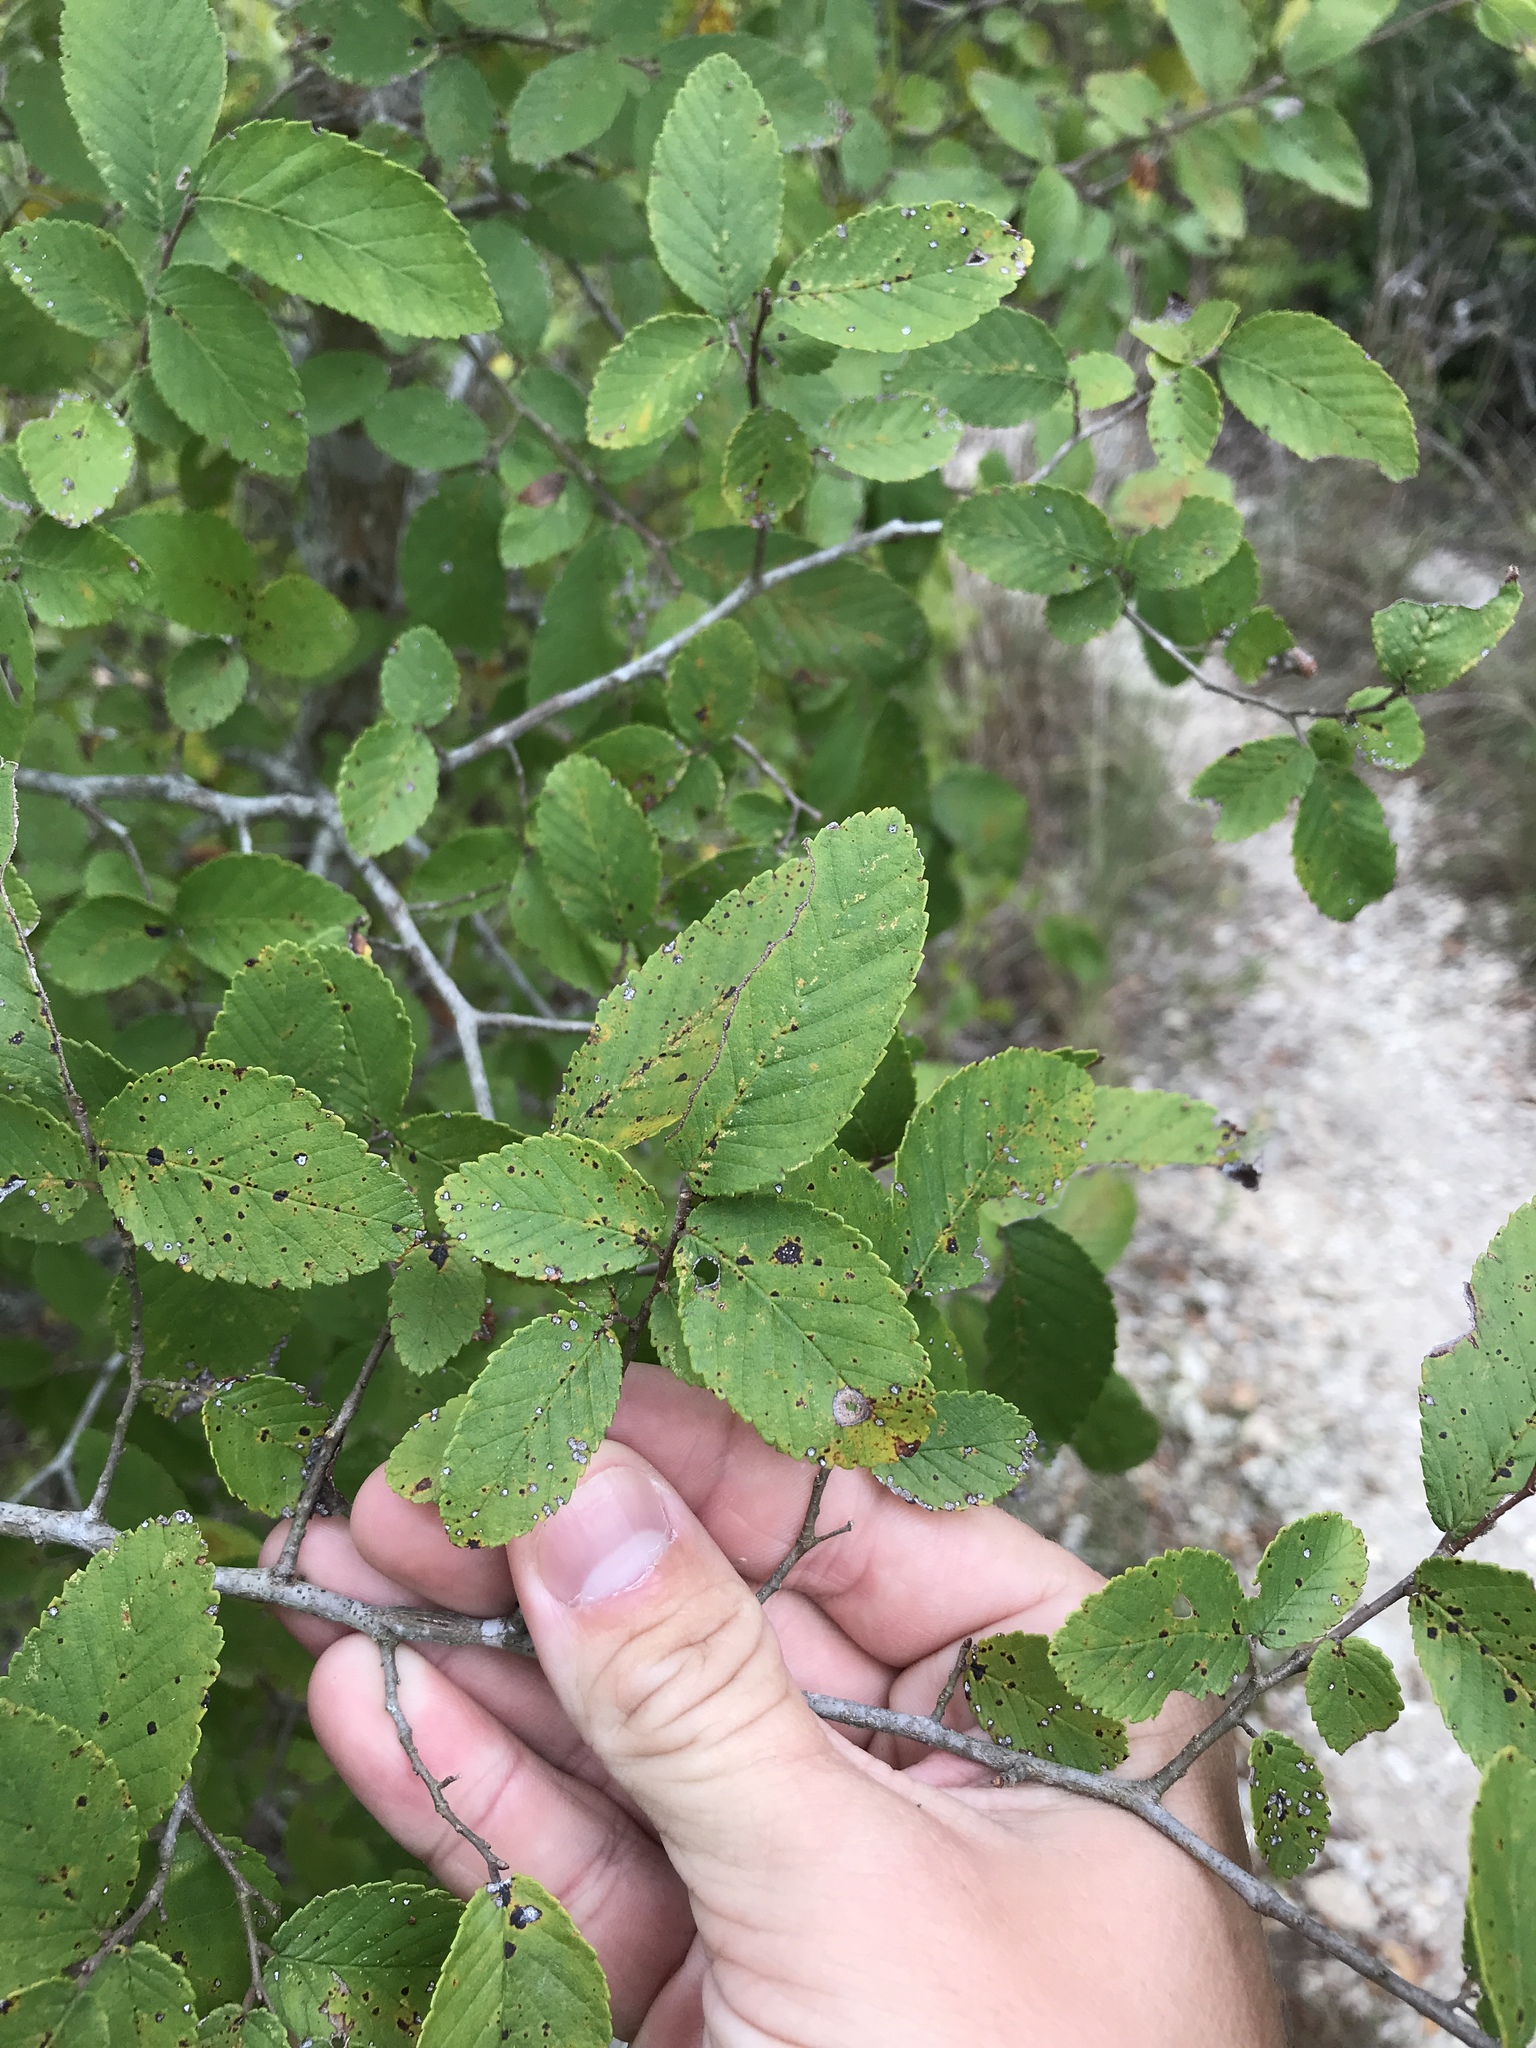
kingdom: Plantae
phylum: Tracheophyta
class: Magnoliopsida
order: Rosales
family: Ulmaceae
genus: Ulmus
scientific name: Ulmus crassifolia
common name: Basket elm
